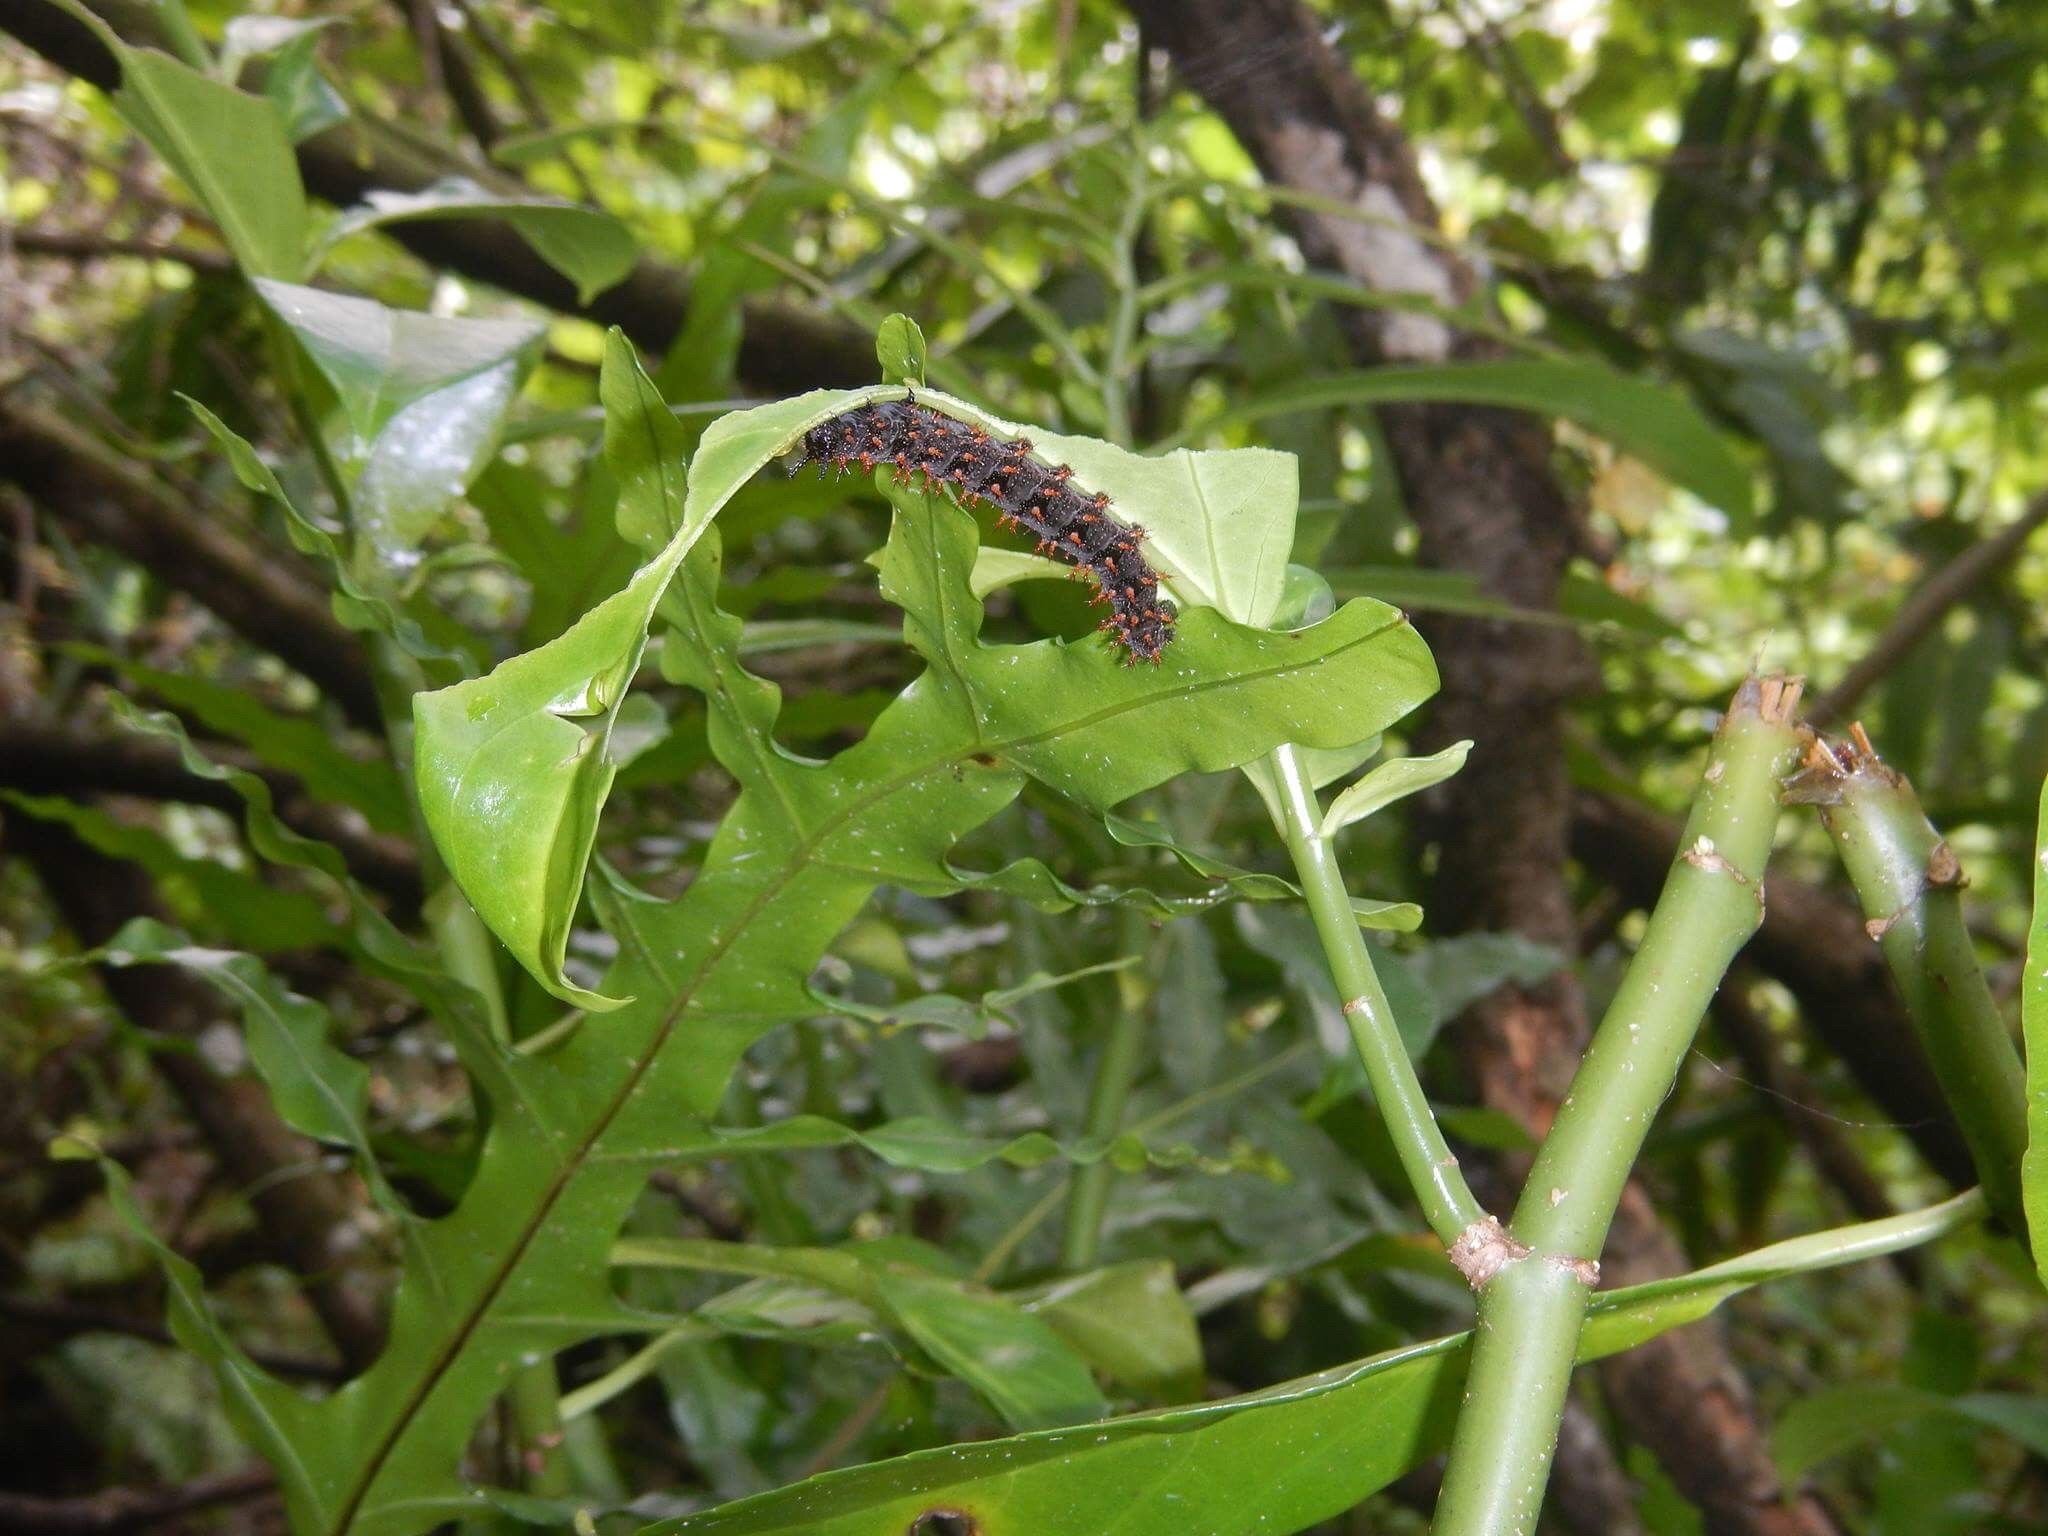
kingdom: Animalia
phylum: Arthropoda
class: Insecta
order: Lepidoptera
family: Nymphalidae
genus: Hypolimnas
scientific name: Hypolimnas octocula
